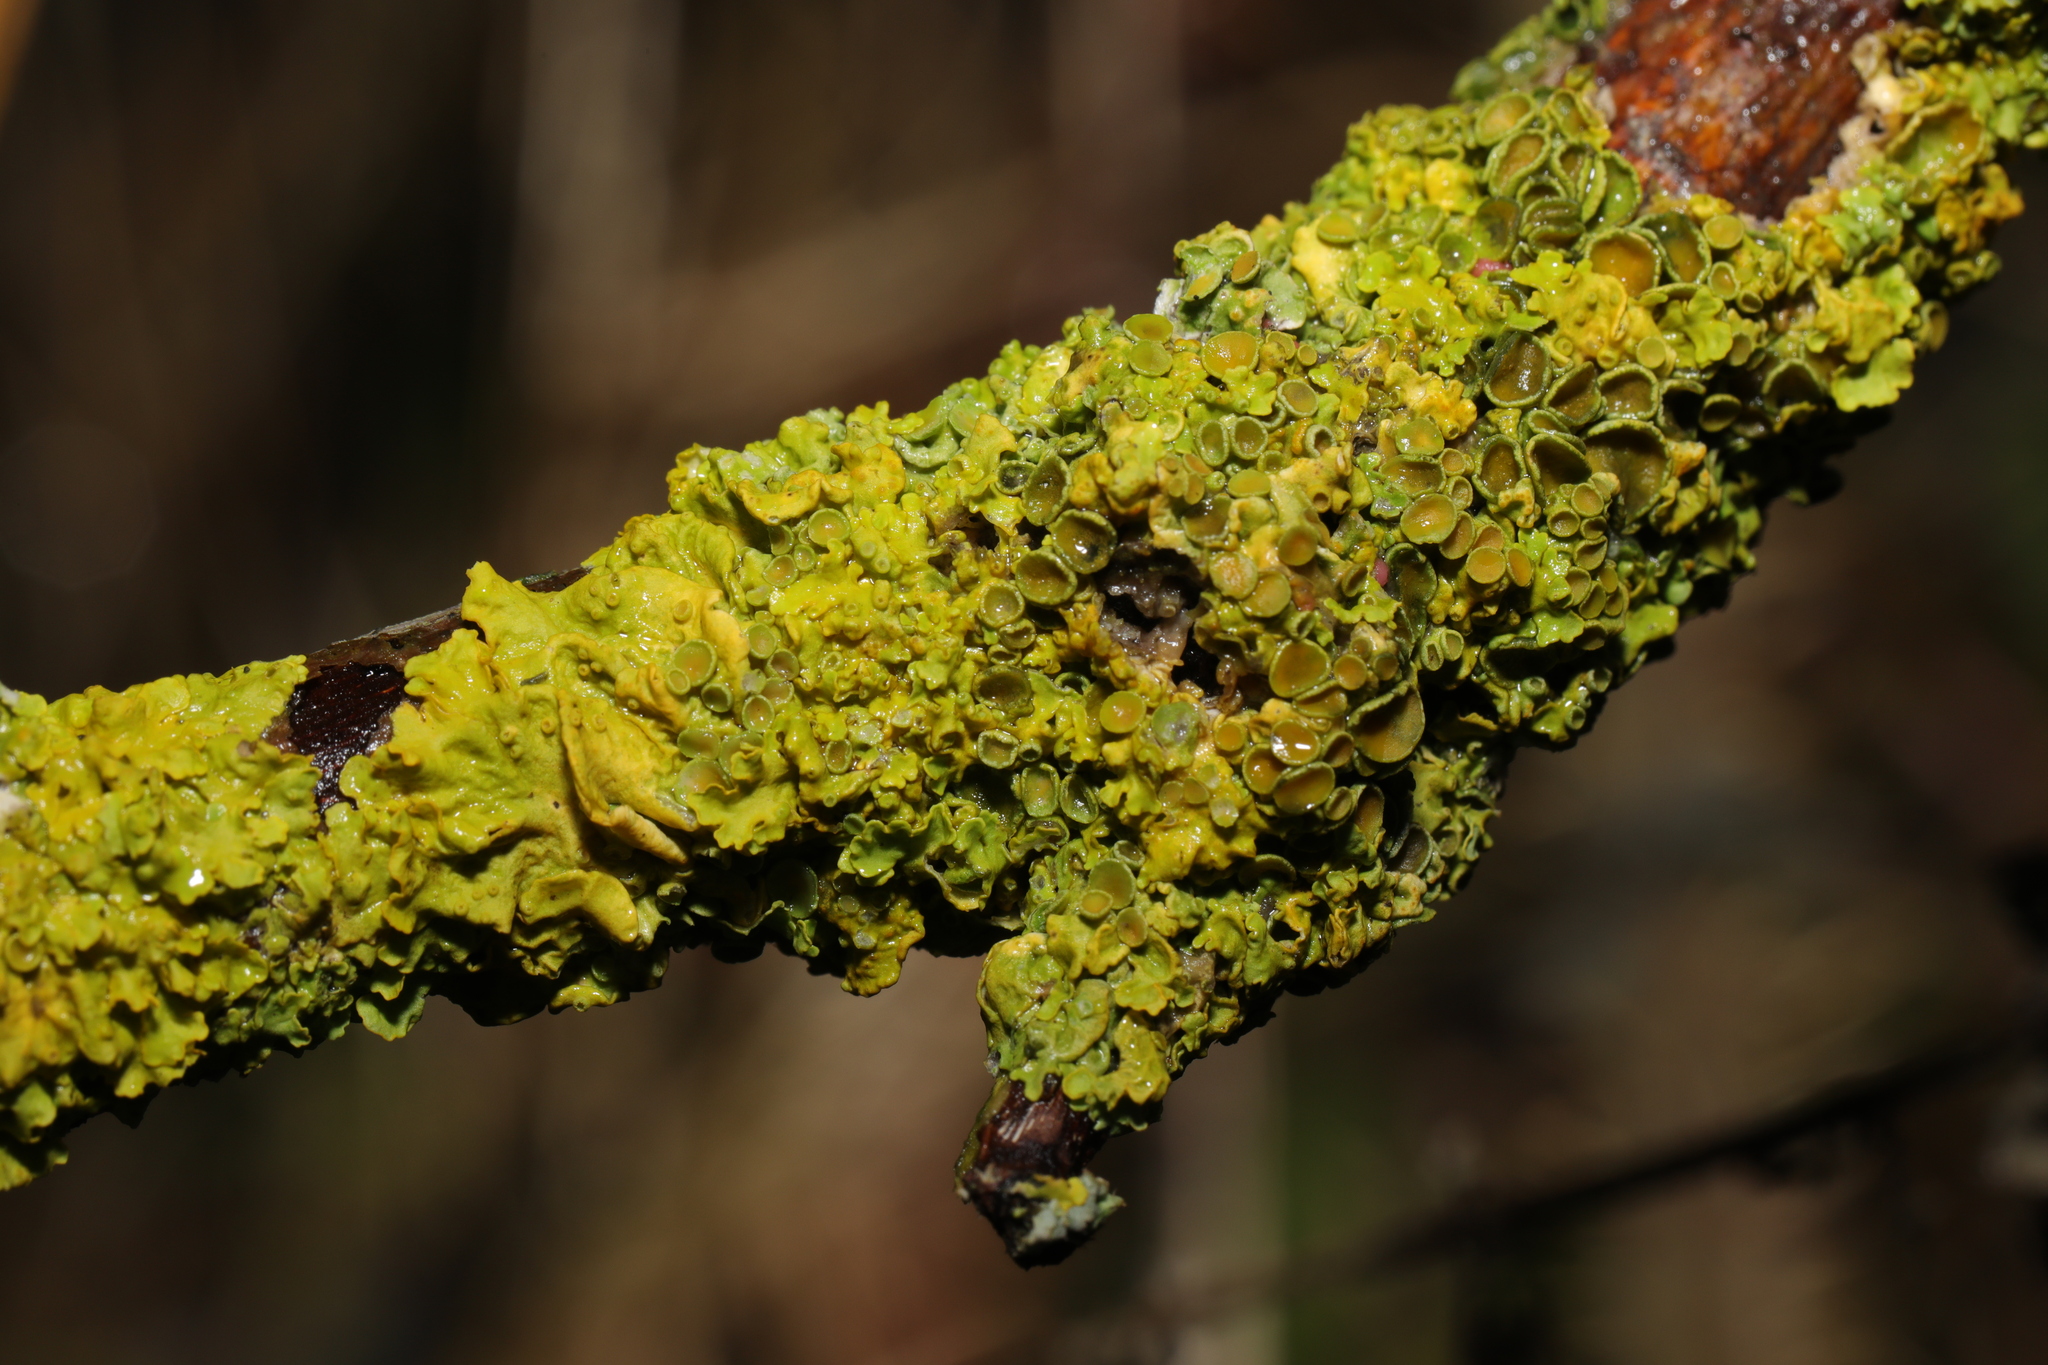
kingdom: Fungi
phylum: Ascomycota
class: Lecanoromycetes
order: Teloschistales
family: Teloschistaceae
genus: Xanthoria
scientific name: Xanthoria parietina
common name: Common orange lichen
